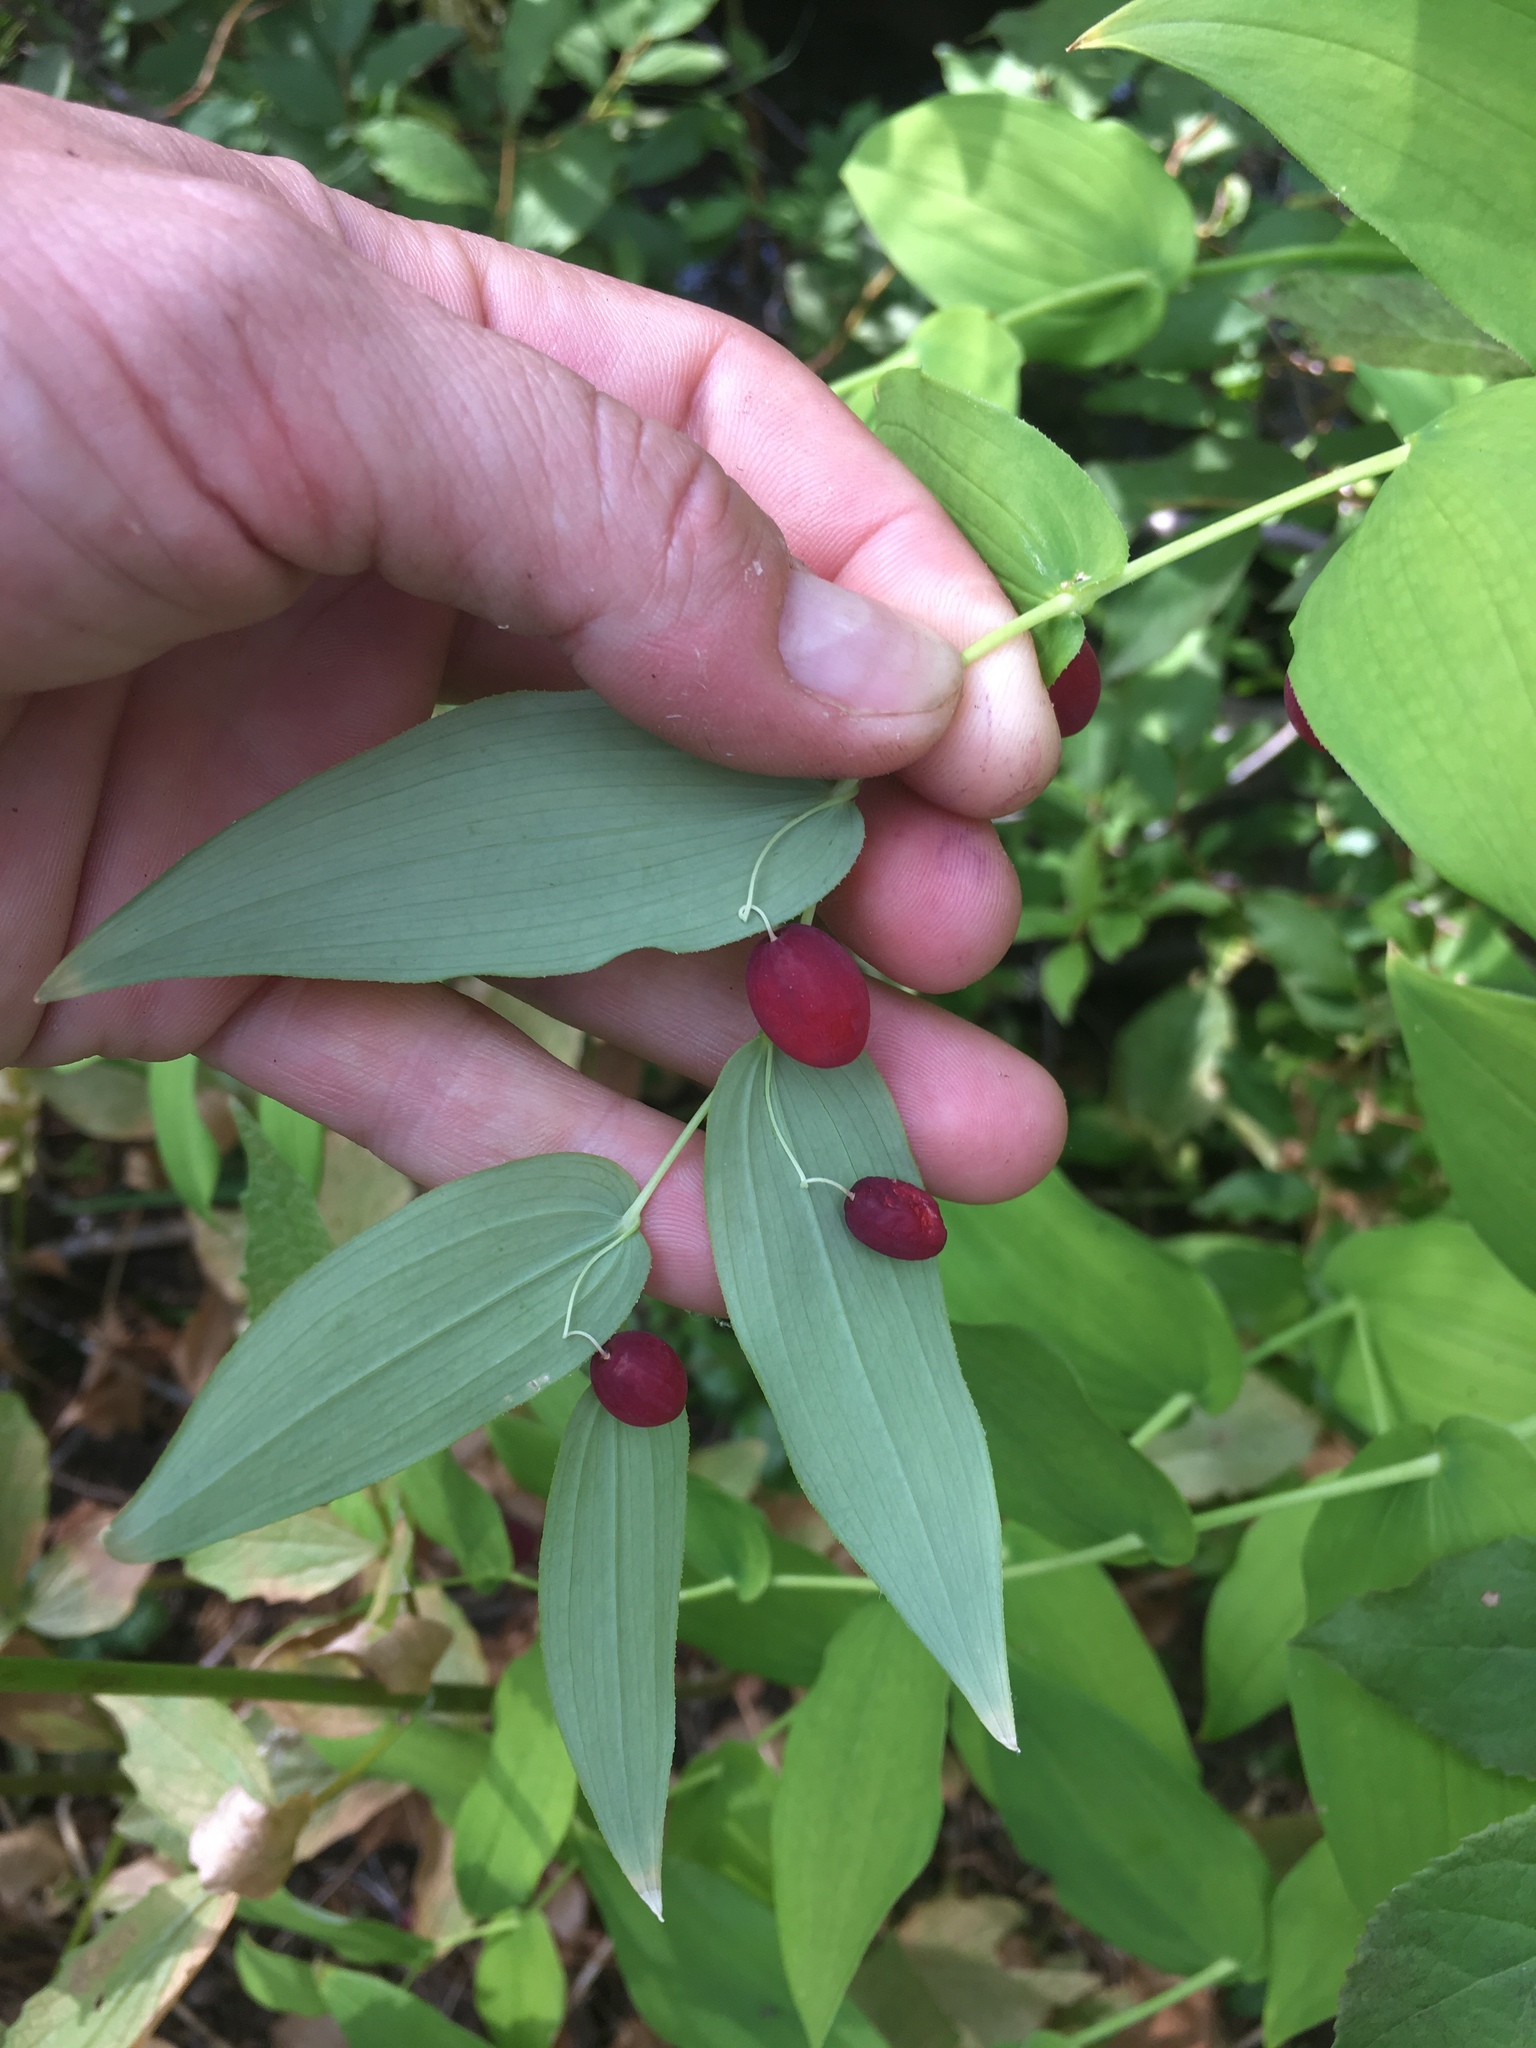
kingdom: Plantae
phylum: Tracheophyta
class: Liliopsida
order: Liliales
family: Liliaceae
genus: Streptopus
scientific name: Streptopus amplexifolius
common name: Clasp twisted stalk
